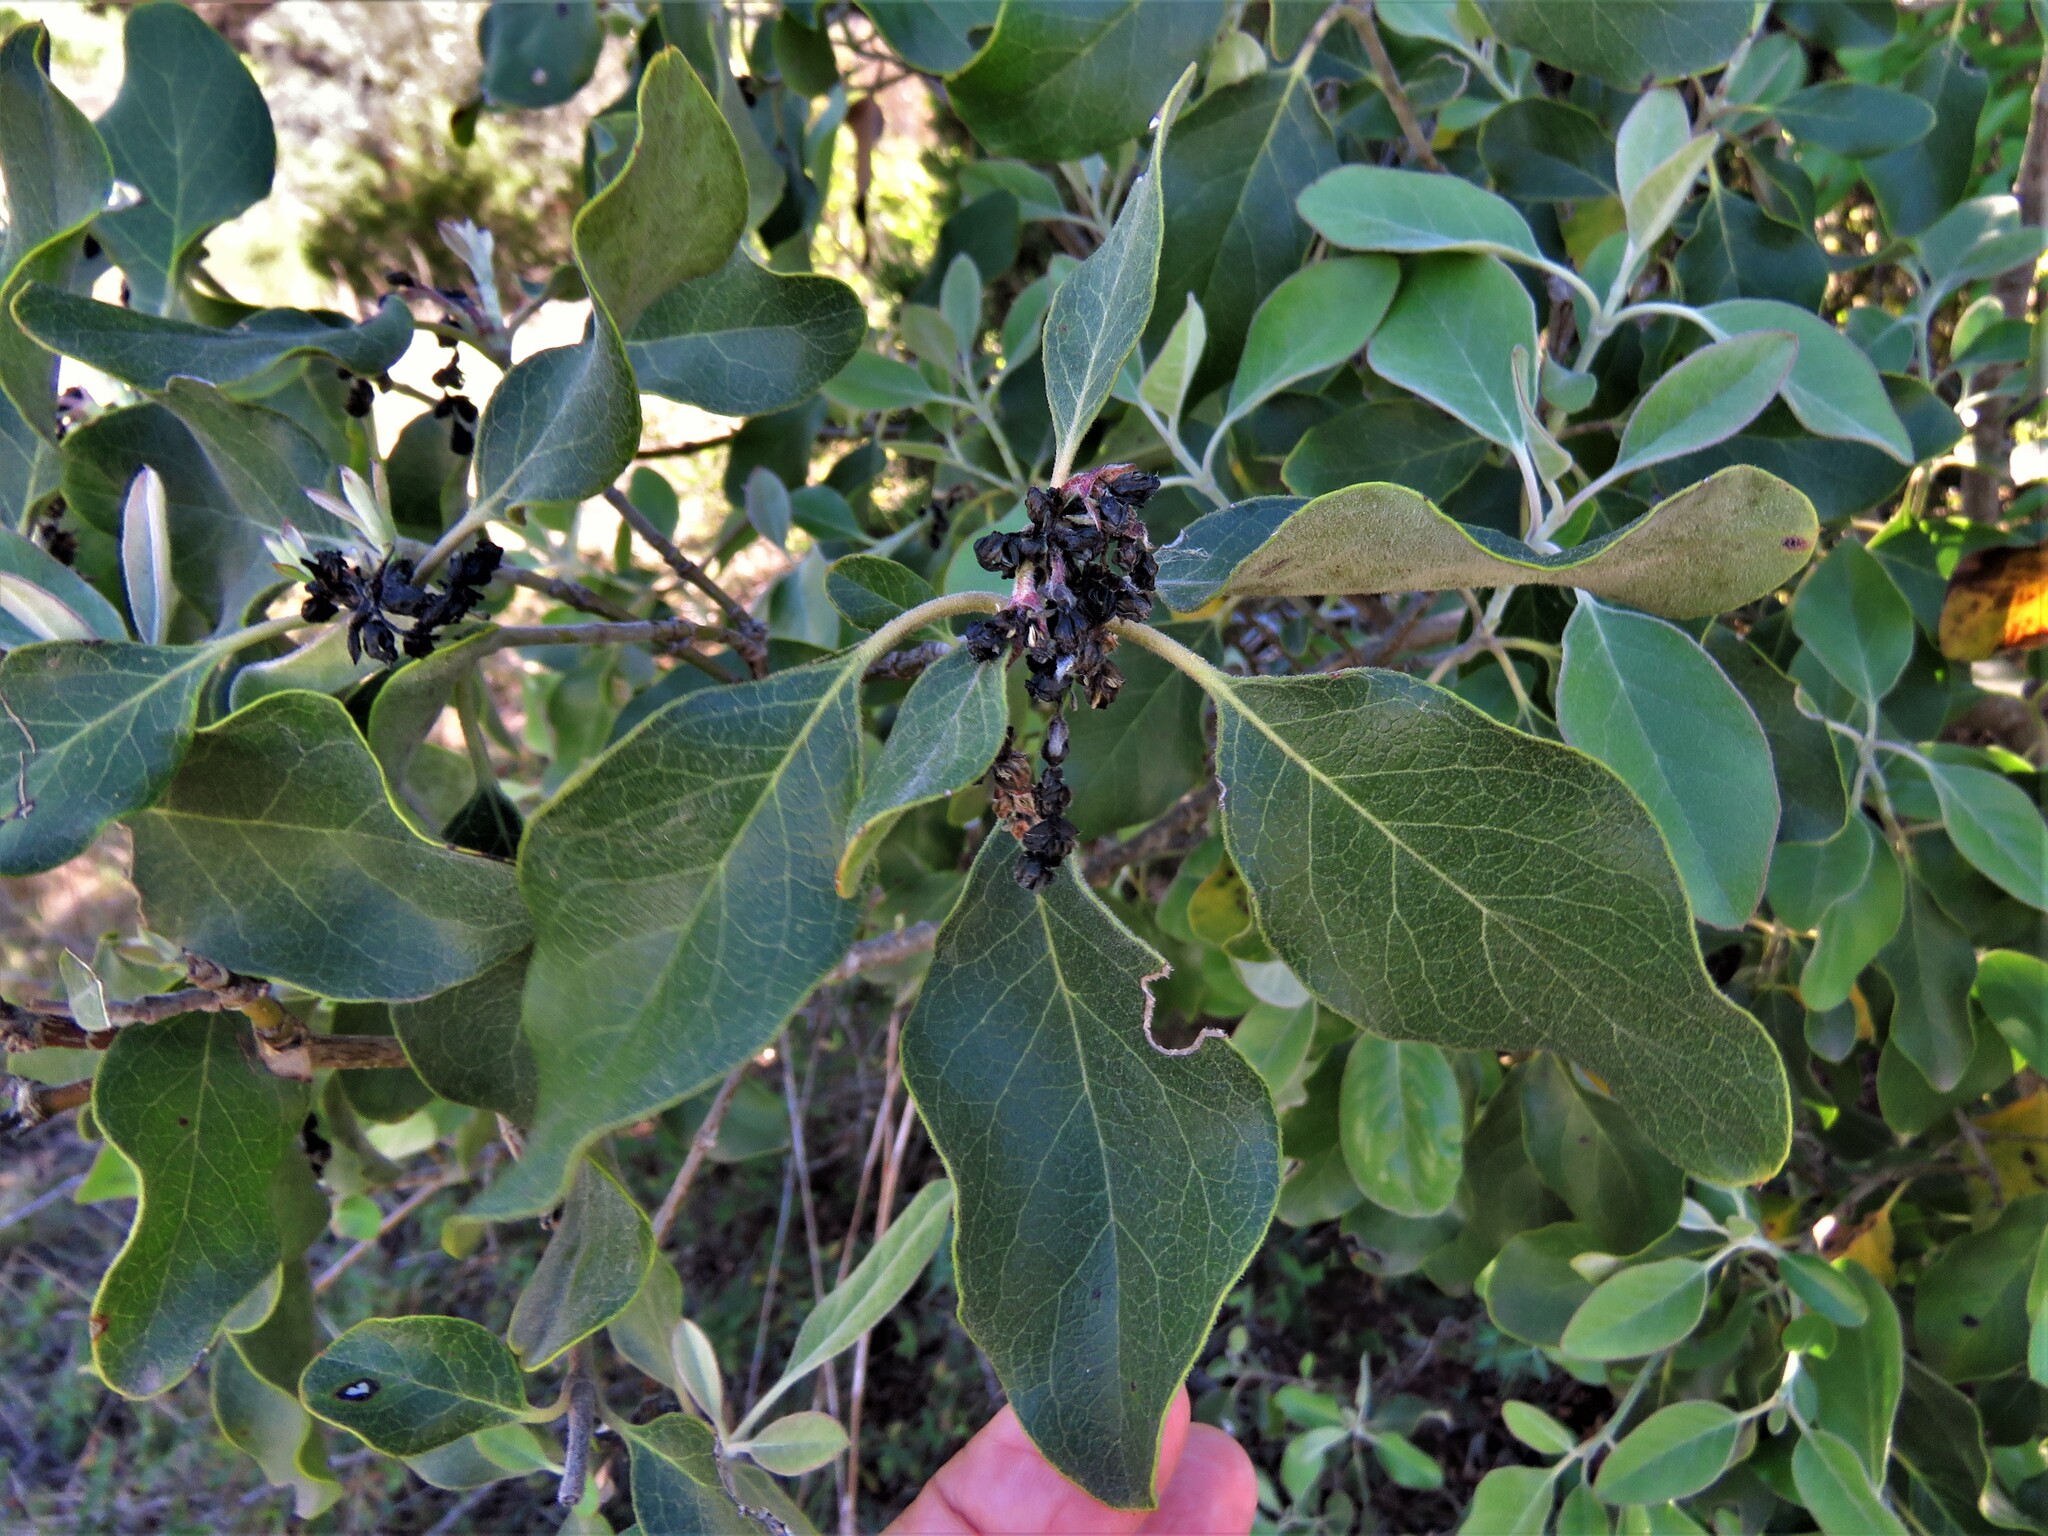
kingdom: Plantae
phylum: Tracheophyta
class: Magnoliopsida
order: Garryales
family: Garryaceae
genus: Garrya
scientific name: Garrya lindheimeri
